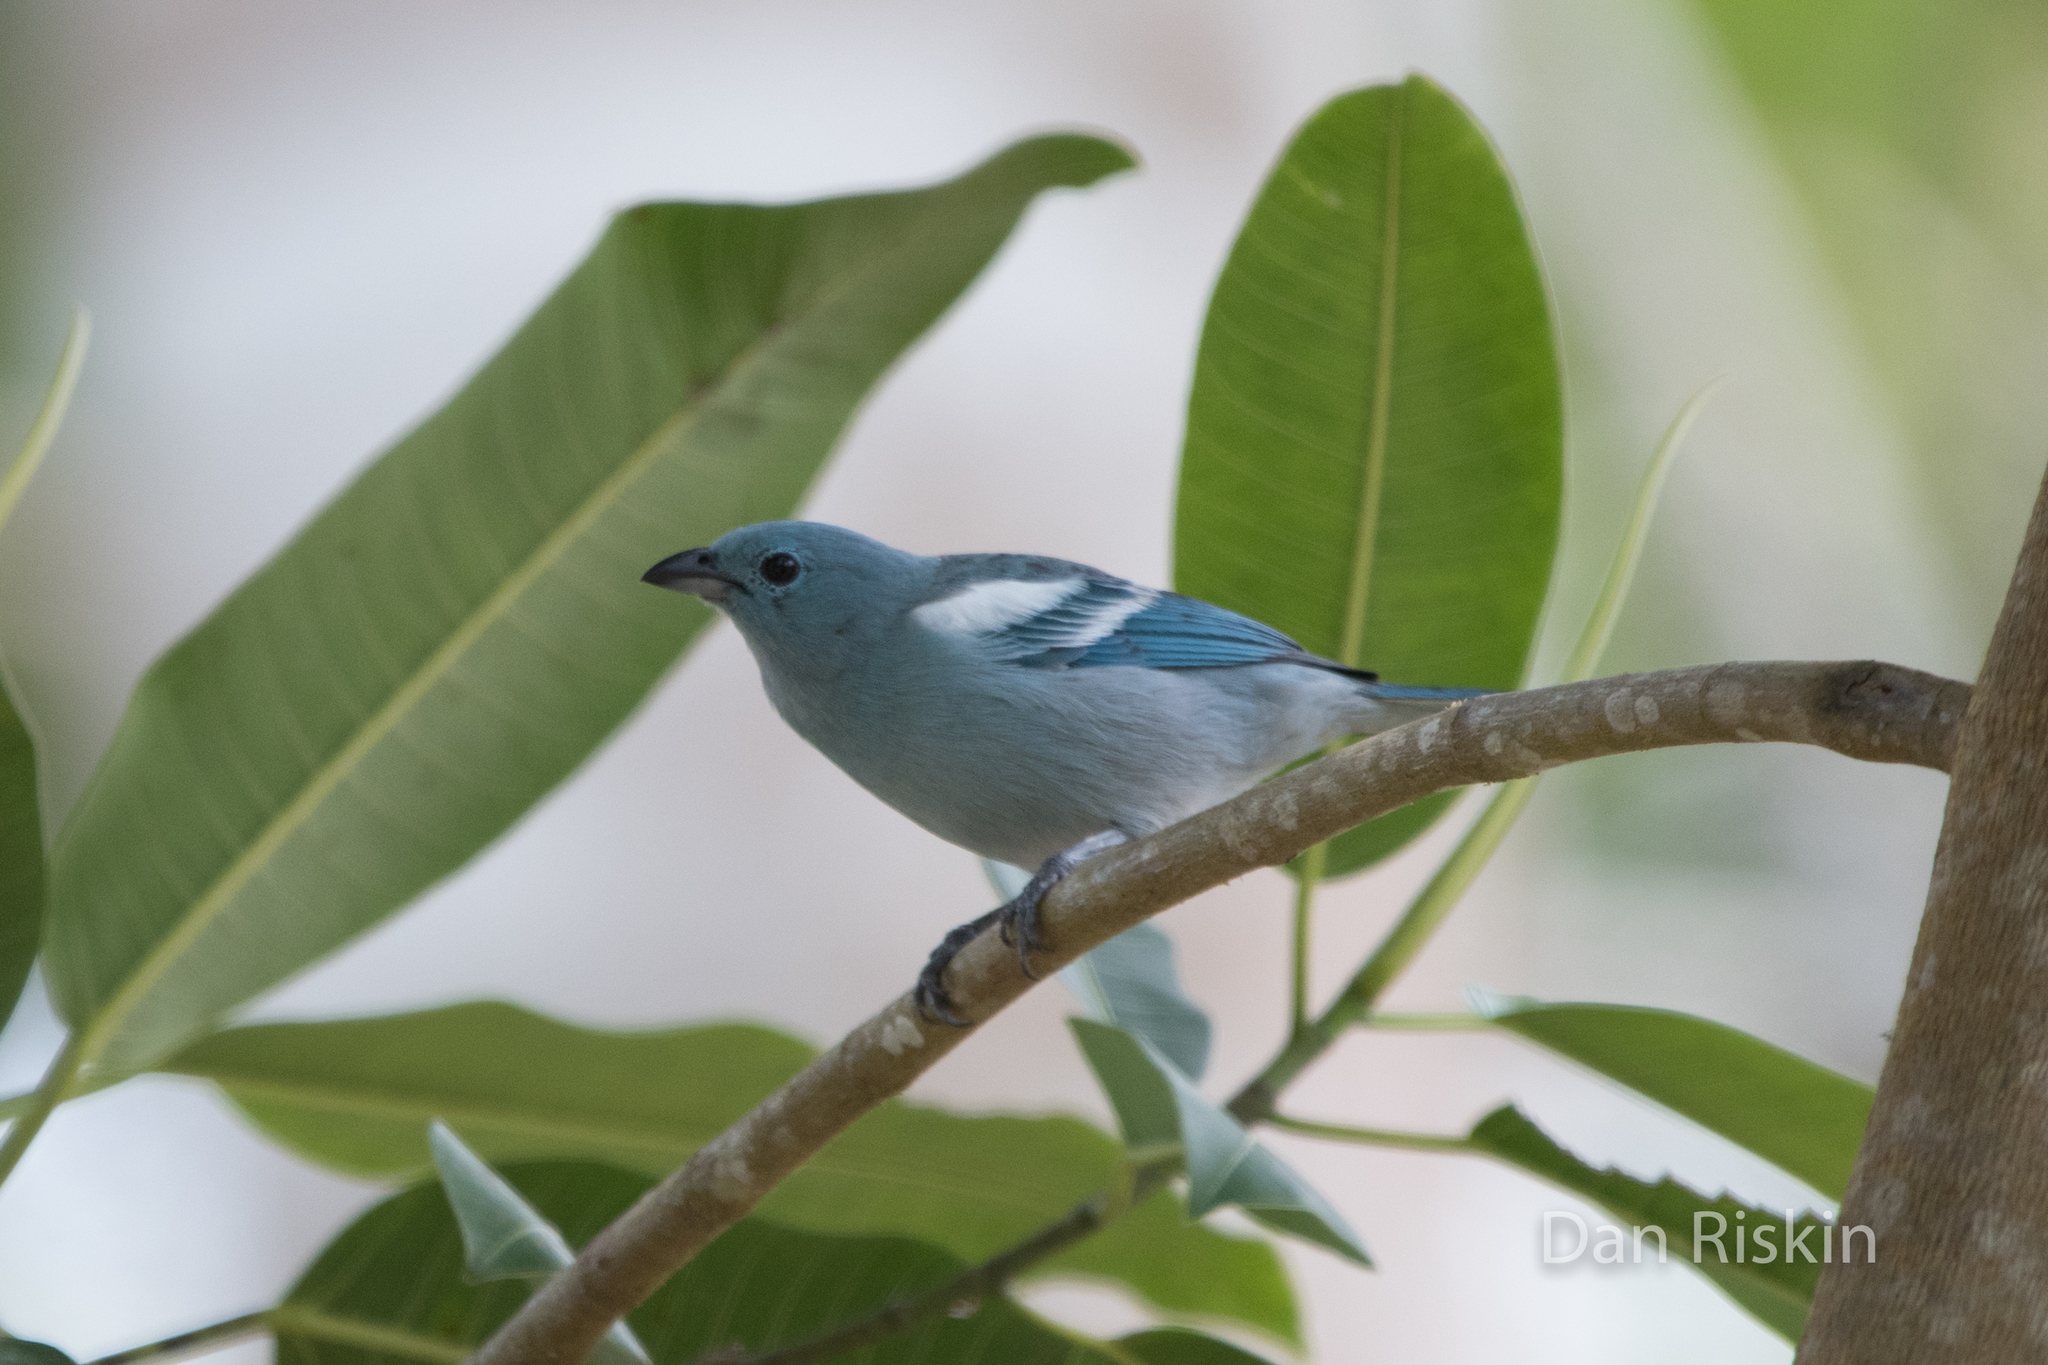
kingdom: Animalia
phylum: Chordata
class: Aves
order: Passeriformes
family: Thraupidae
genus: Thraupis
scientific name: Thraupis episcopus
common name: Blue-grey tanager
